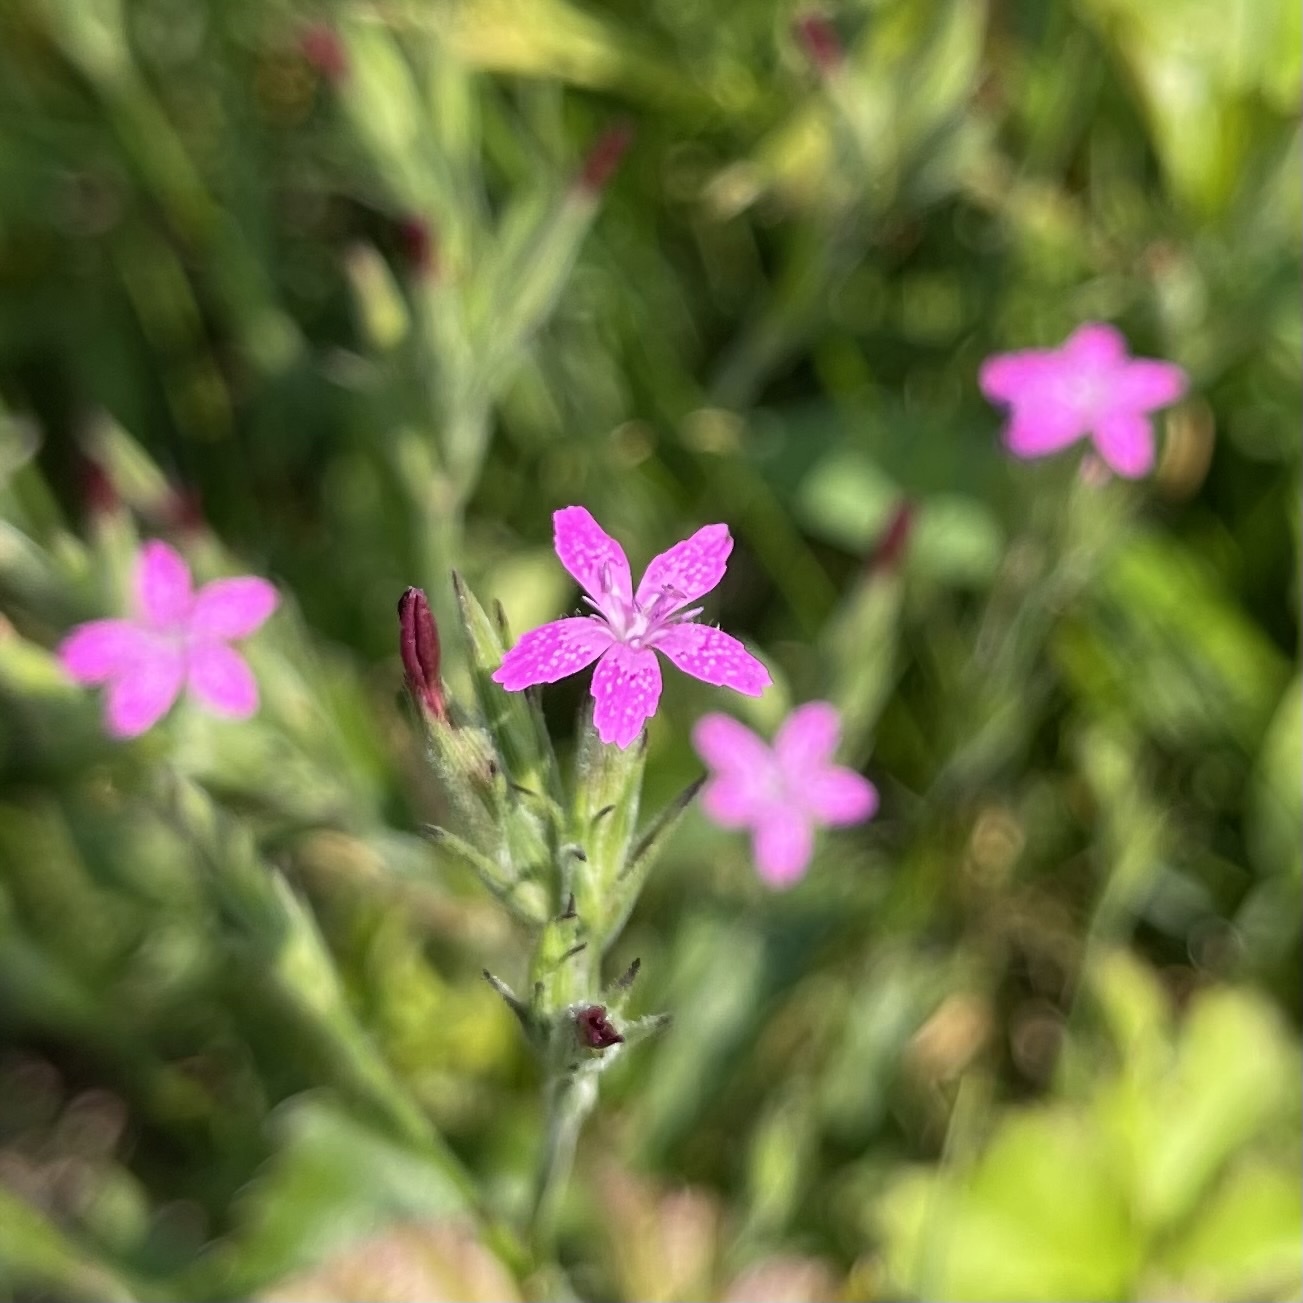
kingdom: Plantae
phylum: Tracheophyta
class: Magnoliopsida
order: Caryophyllales
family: Caryophyllaceae
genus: Dianthus
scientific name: Dianthus armeria
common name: Deptford pink
